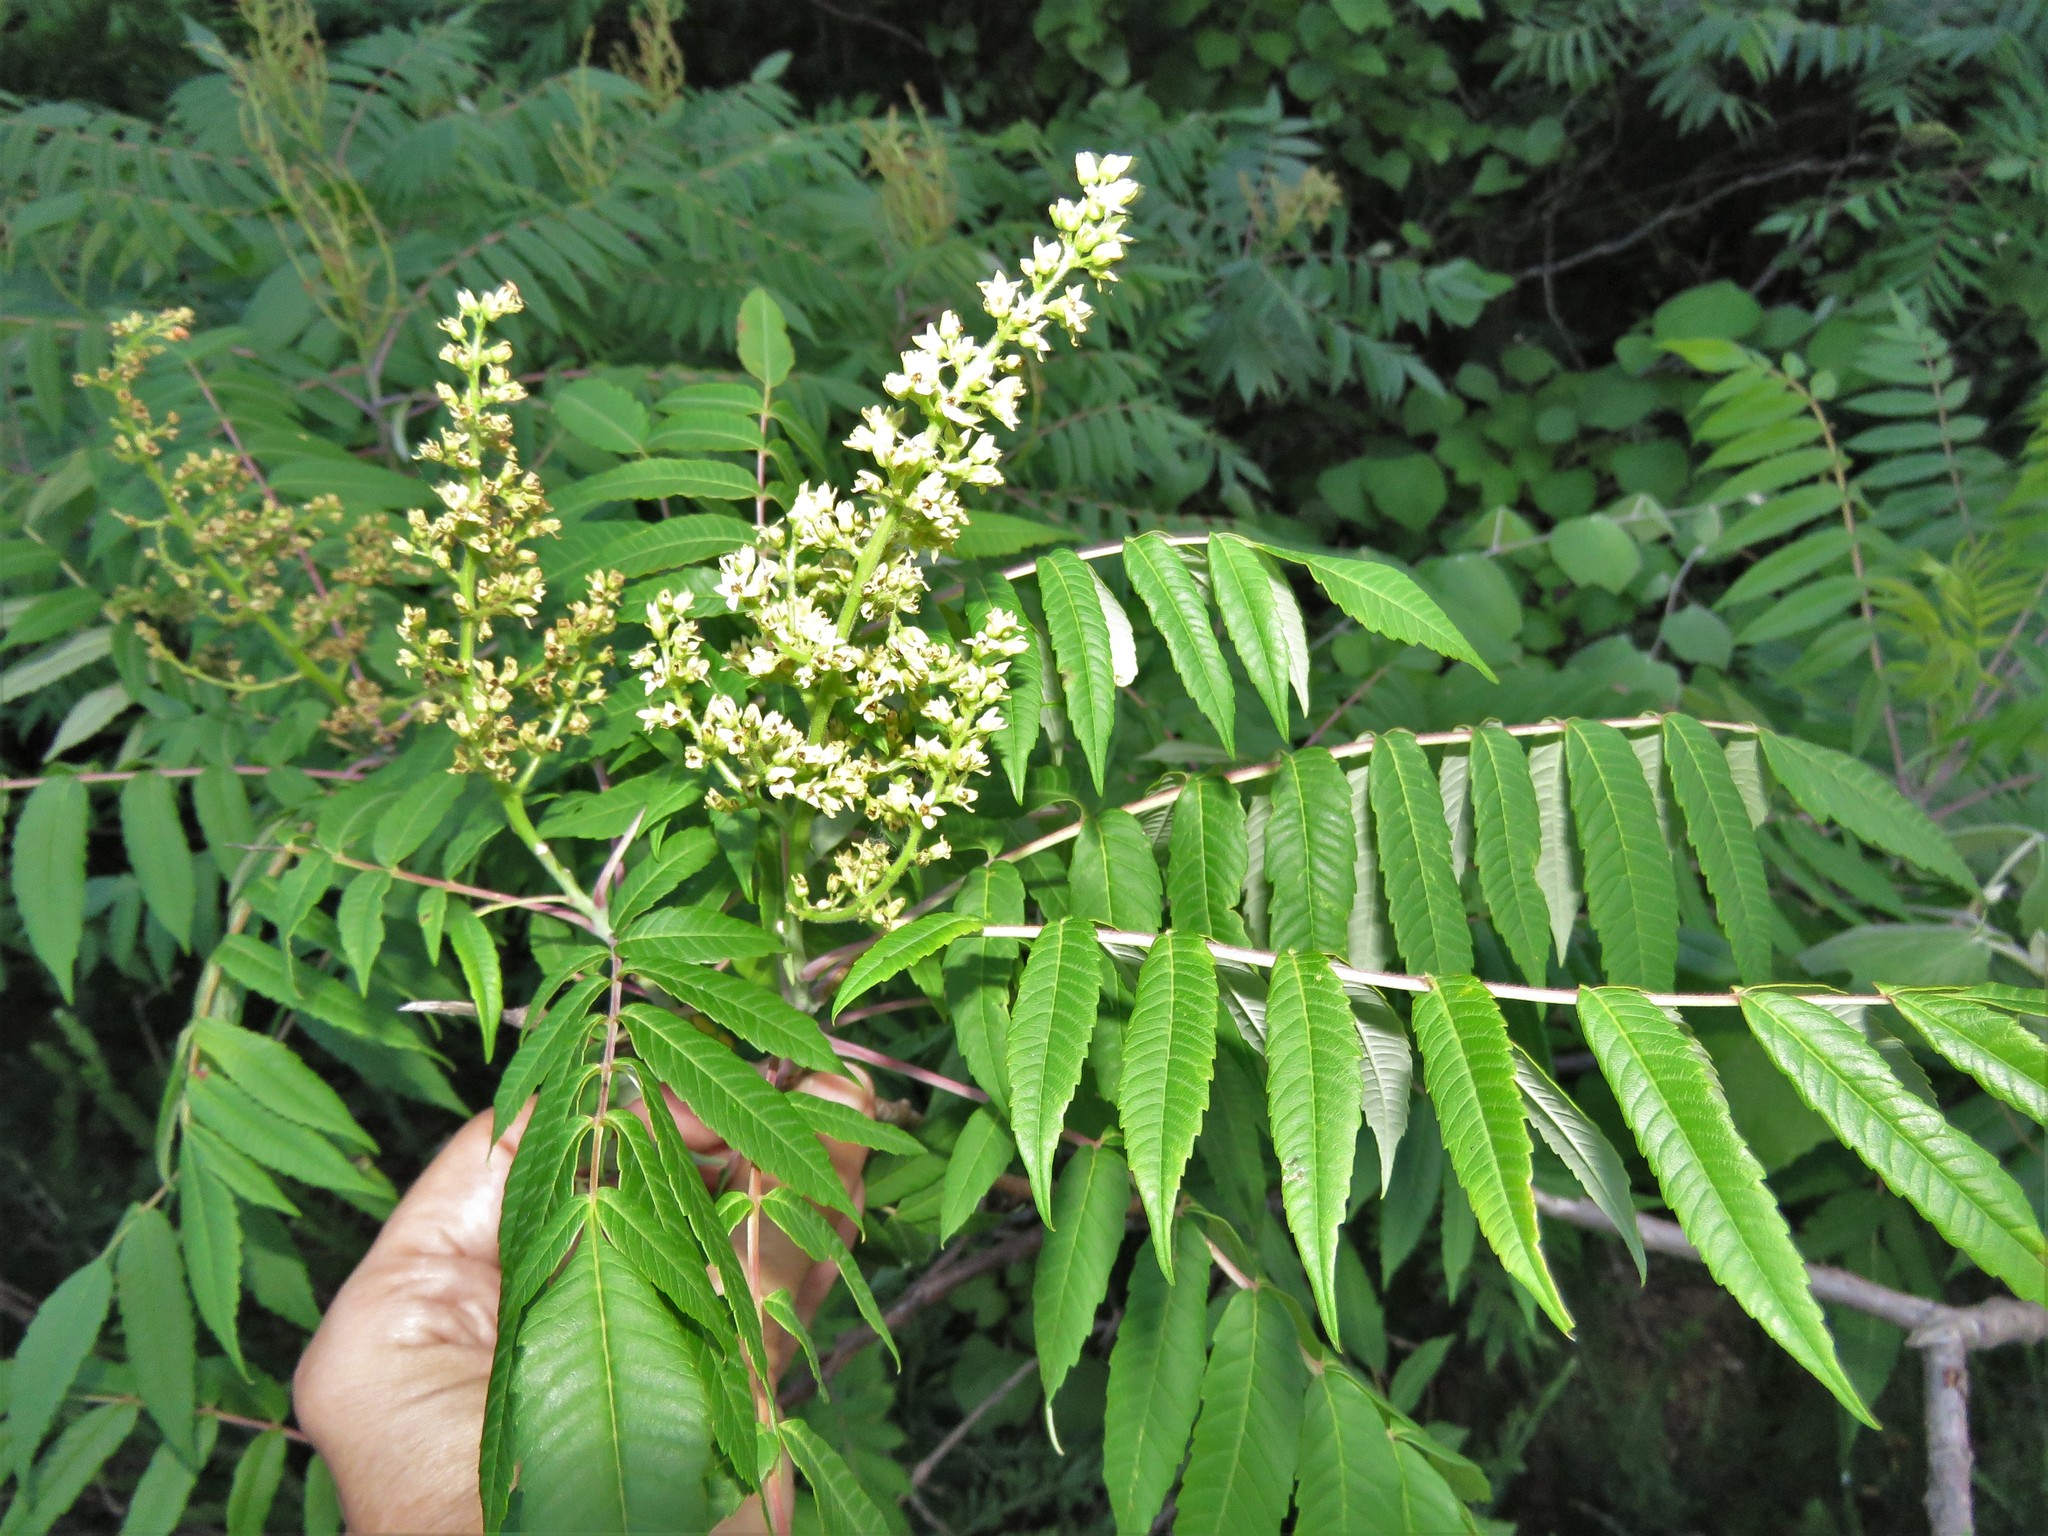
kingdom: Plantae
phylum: Tracheophyta
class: Magnoliopsida
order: Sapindales
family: Anacardiaceae
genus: Rhus
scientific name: Rhus glabra
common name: Scarlet sumac
